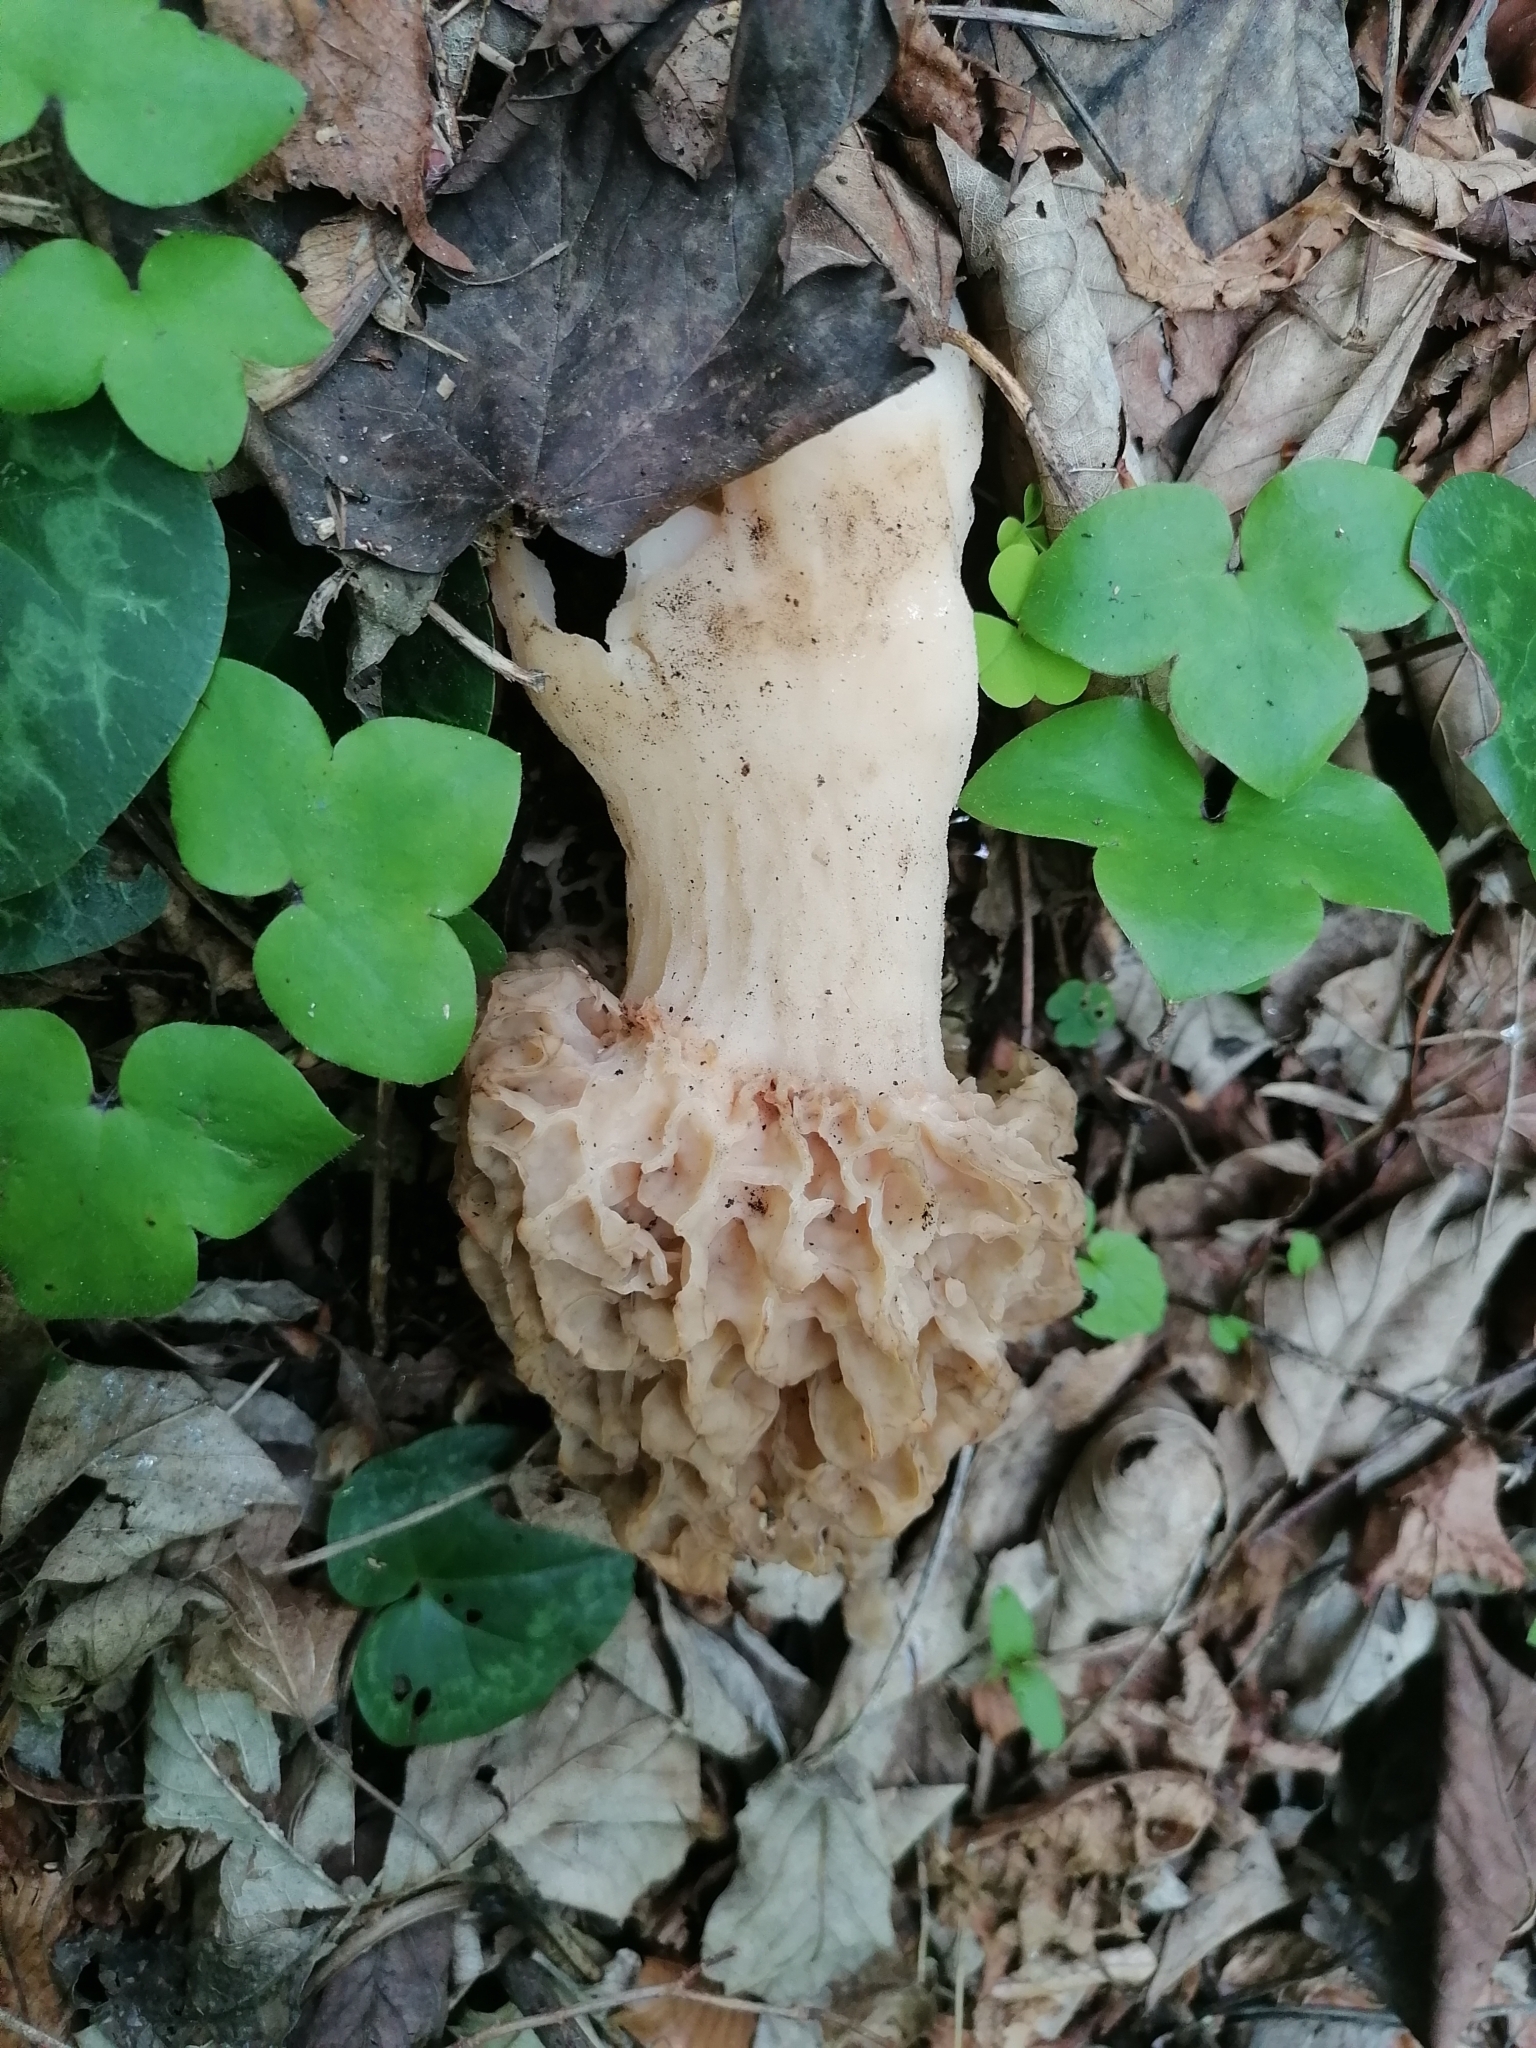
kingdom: Fungi
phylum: Ascomycota
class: Pezizomycetes
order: Pezizales
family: Morchellaceae
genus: Morchella
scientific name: Morchella esculenta
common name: Morel
